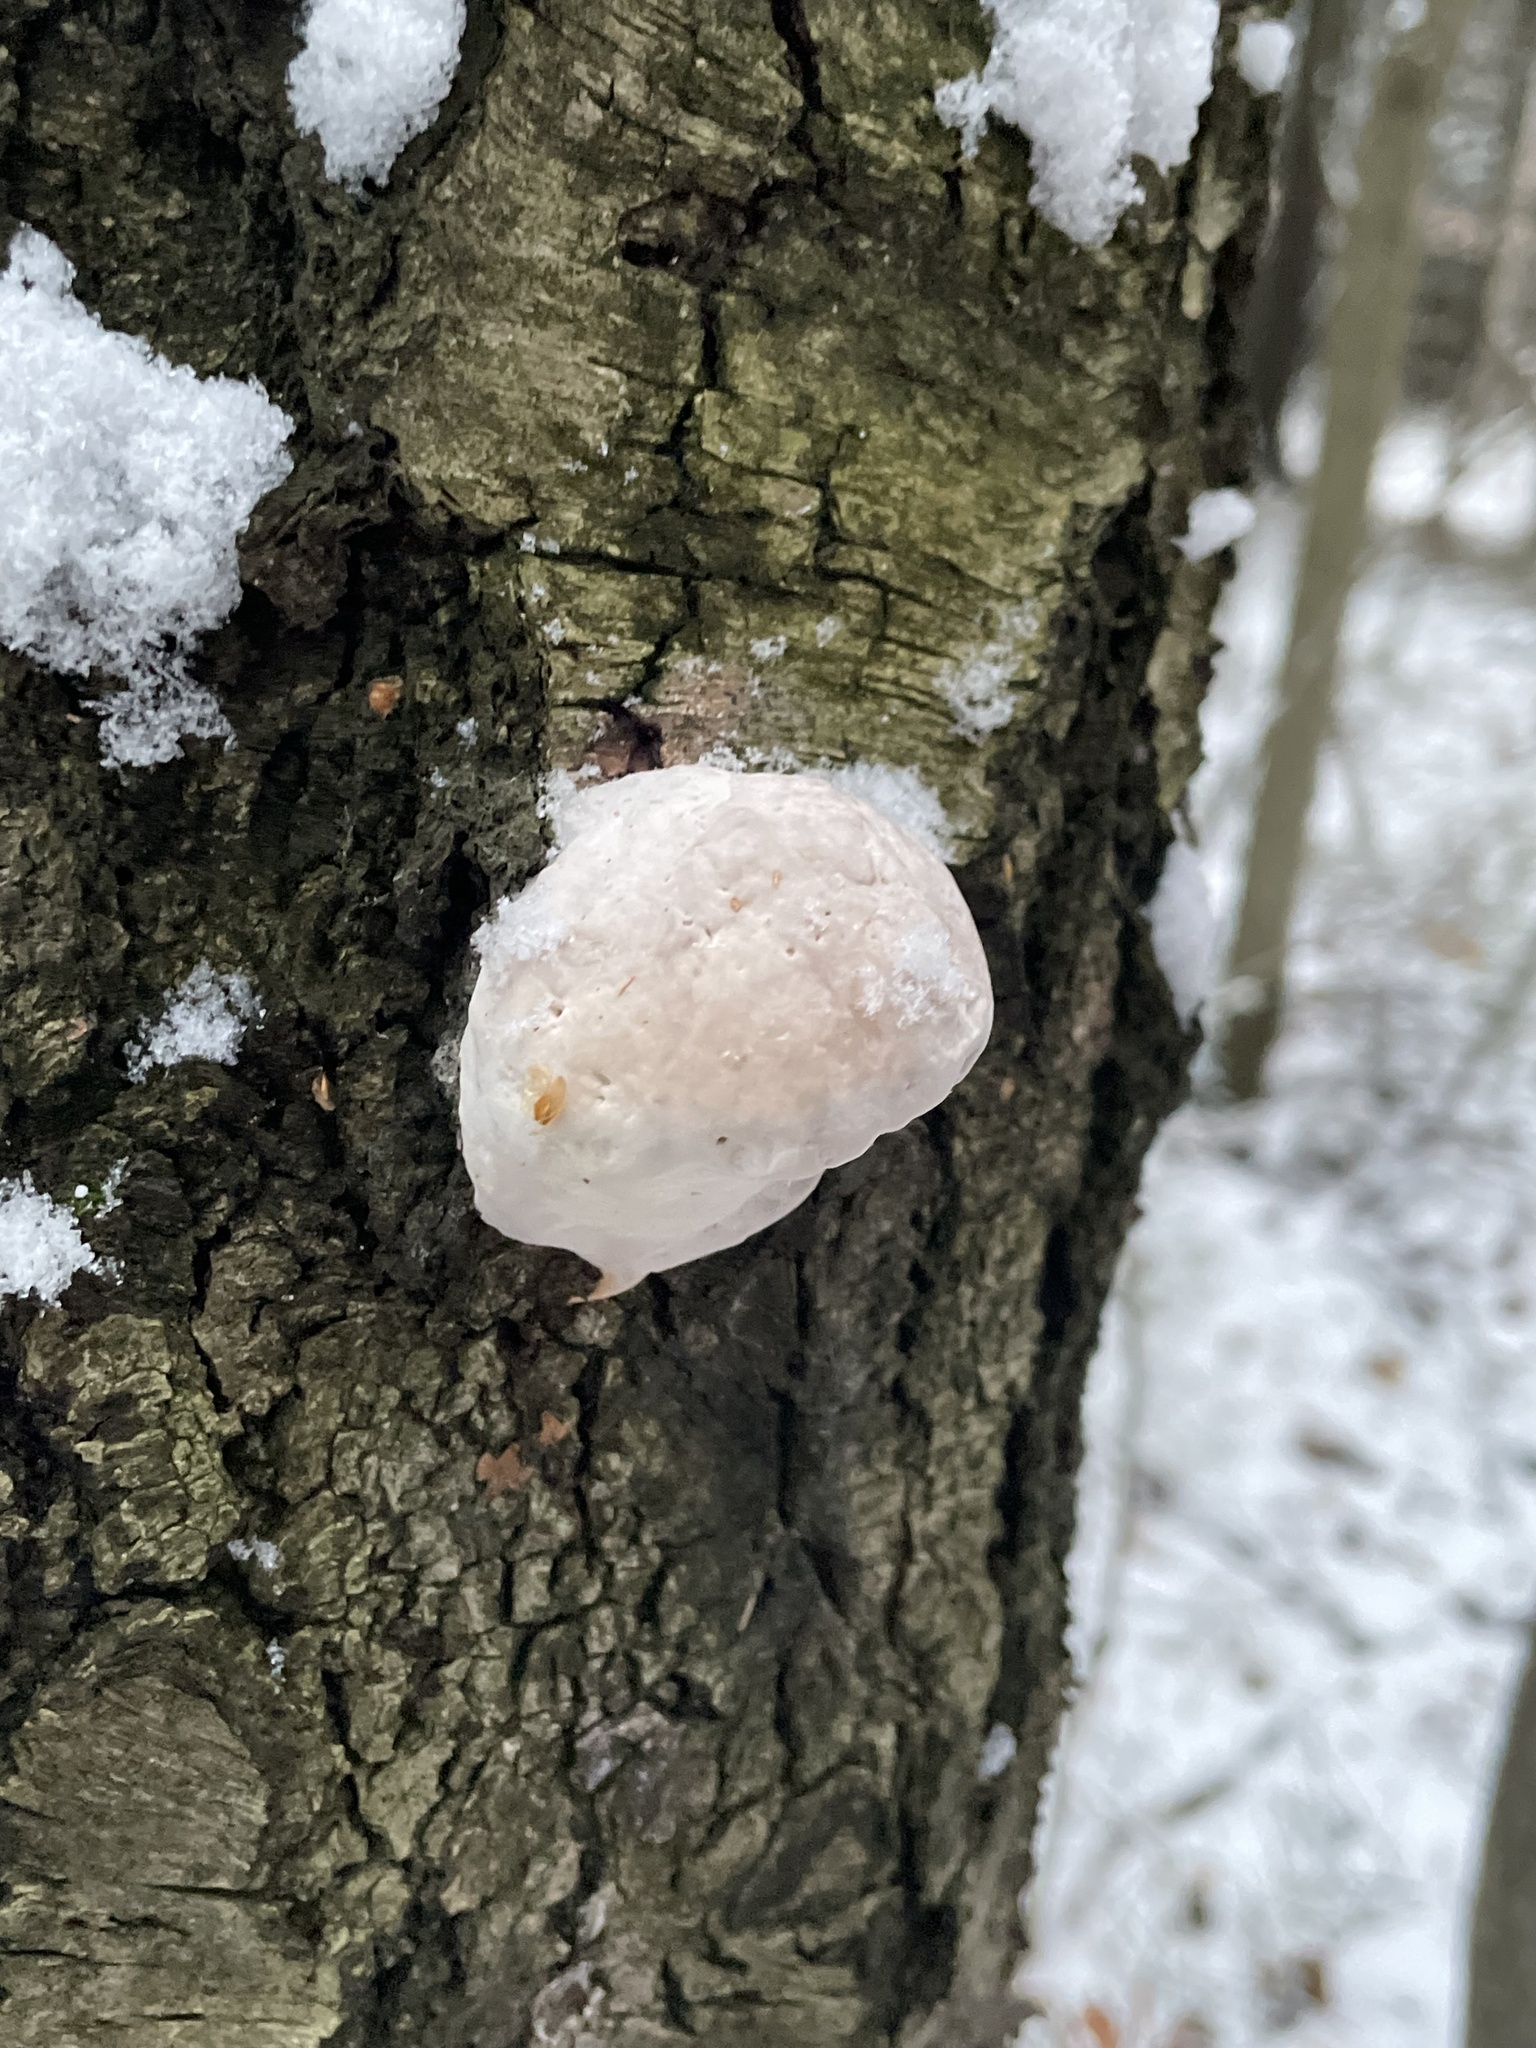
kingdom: Fungi
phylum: Basidiomycota
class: Agaricomycetes
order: Polyporales
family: Fomitopsidaceae
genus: Fomitopsis
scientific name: Fomitopsis pinicola
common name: Red-belted bracket
